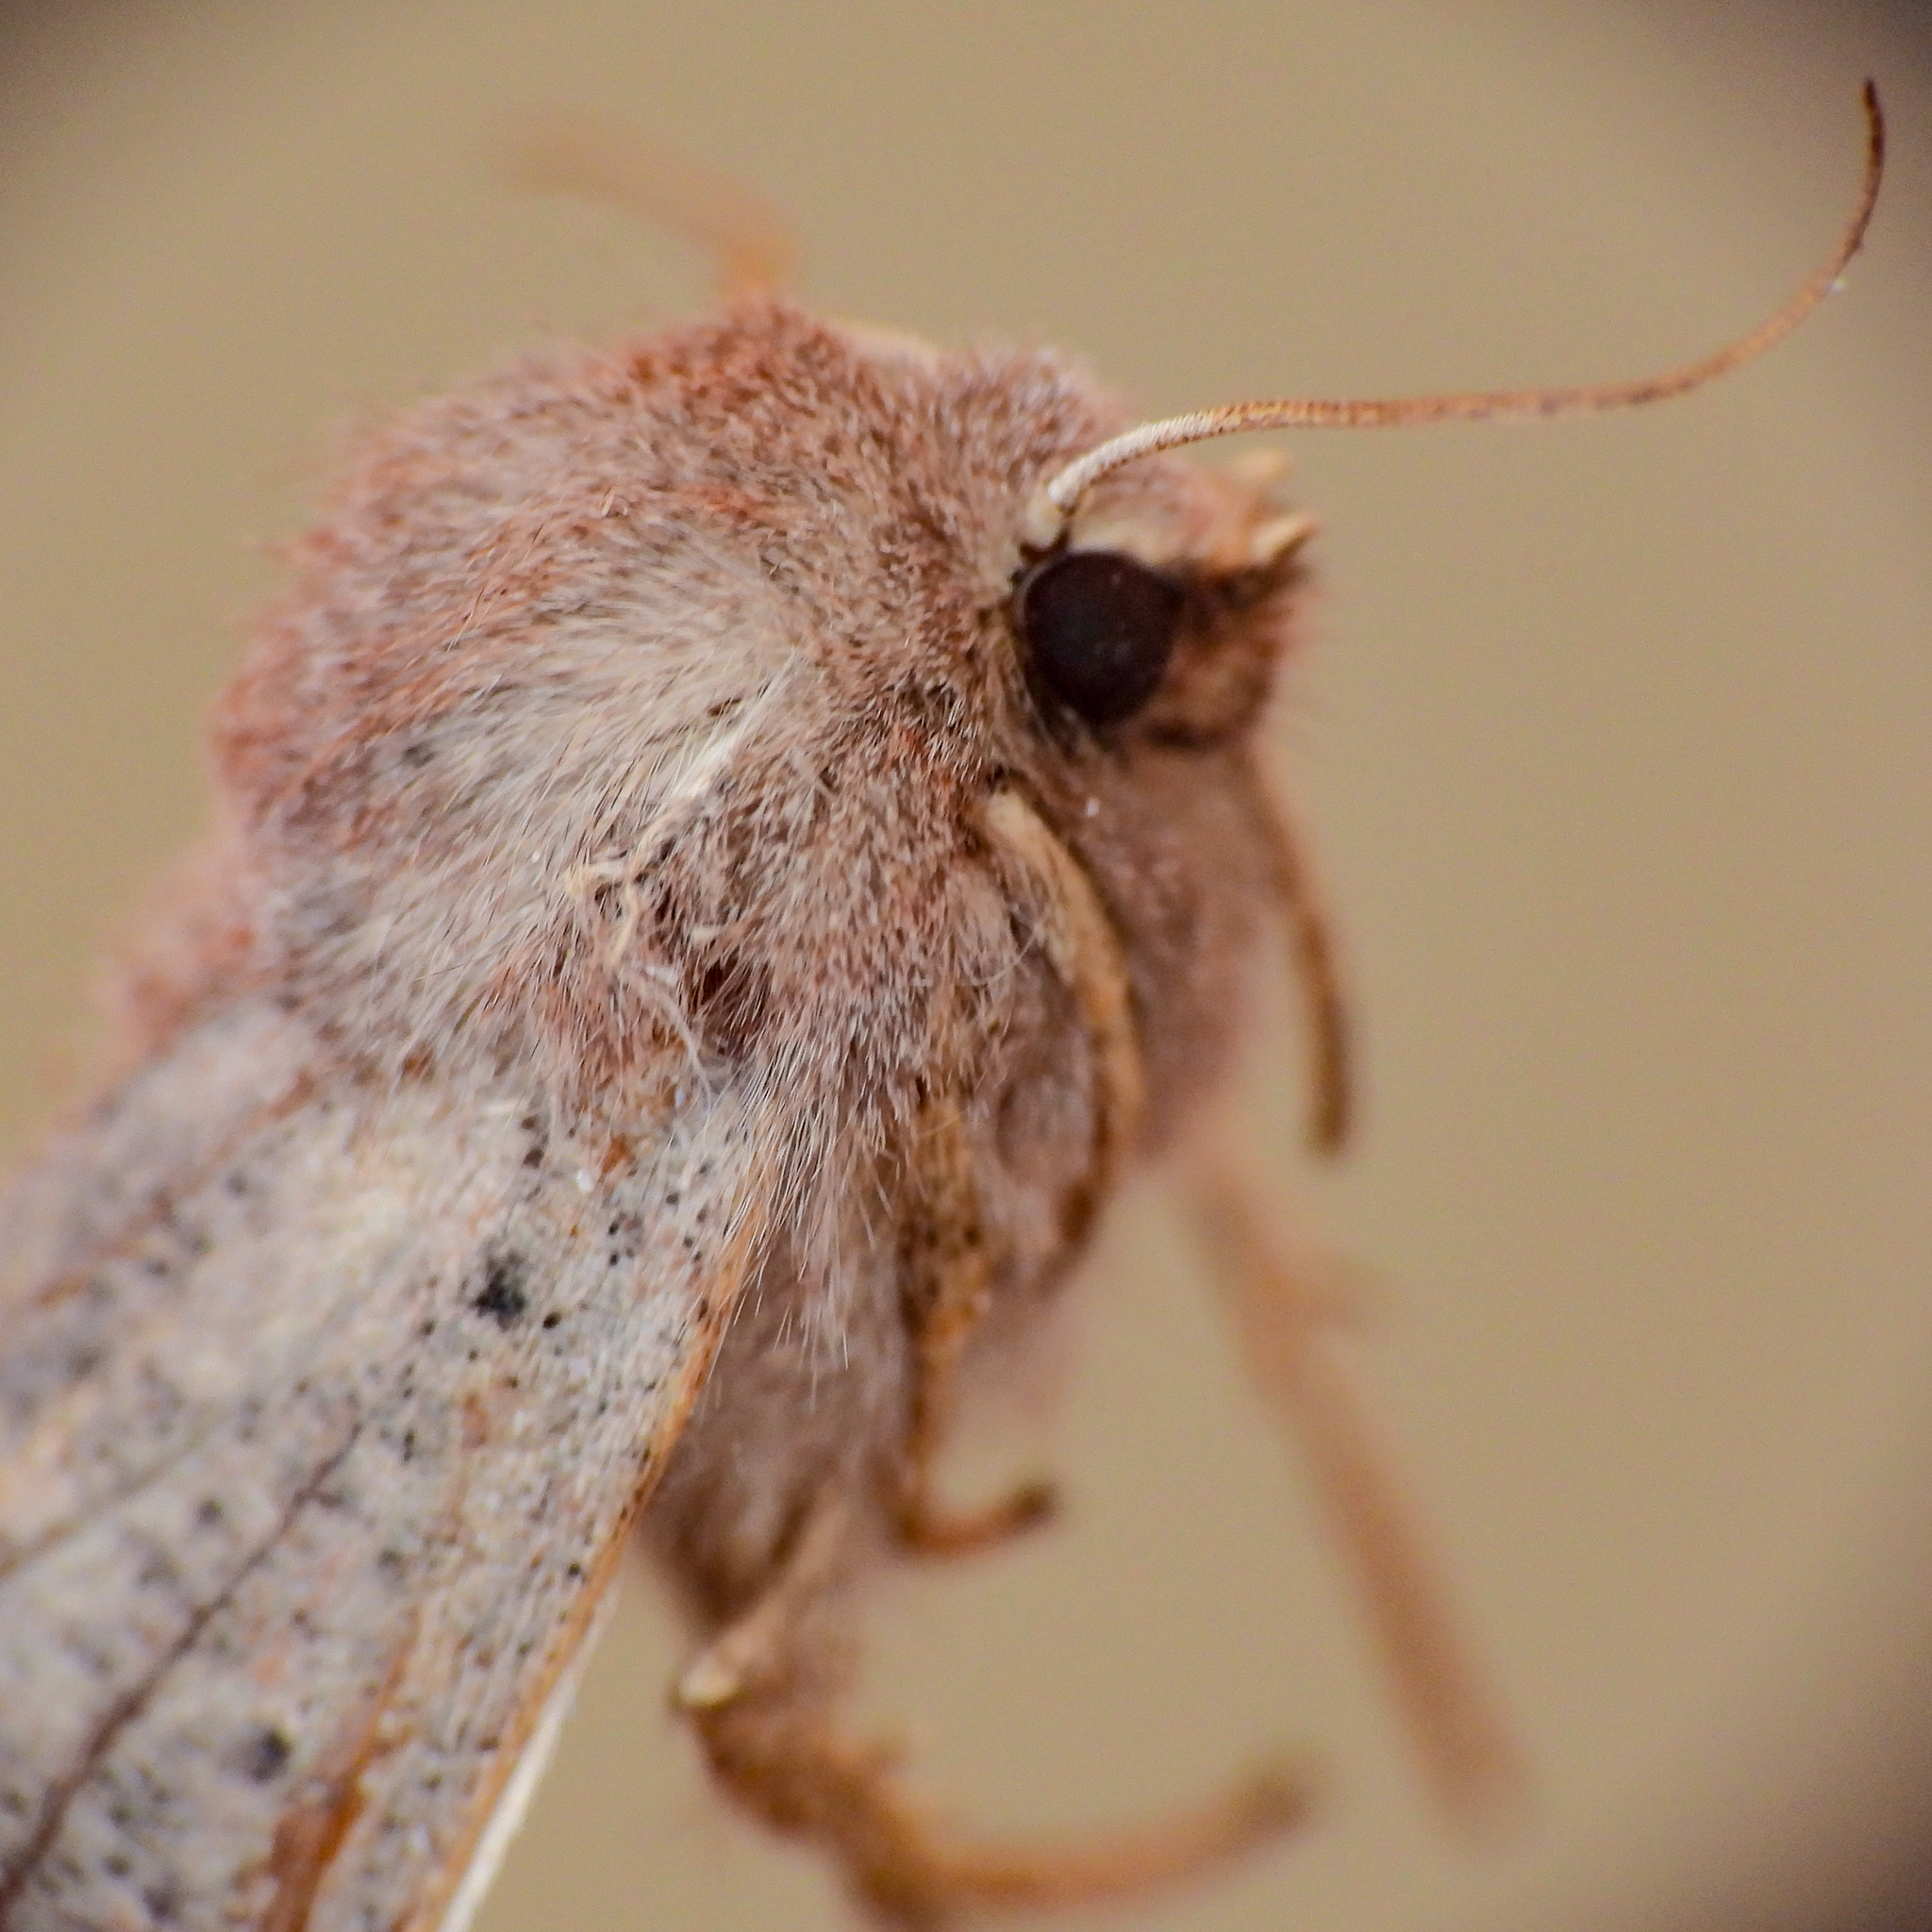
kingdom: Animalia
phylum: Arthropoda
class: Insecta
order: Lepidoptera
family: Noctuidae
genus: Orthosia
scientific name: Orthosia hibisci
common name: Green fruitworm
